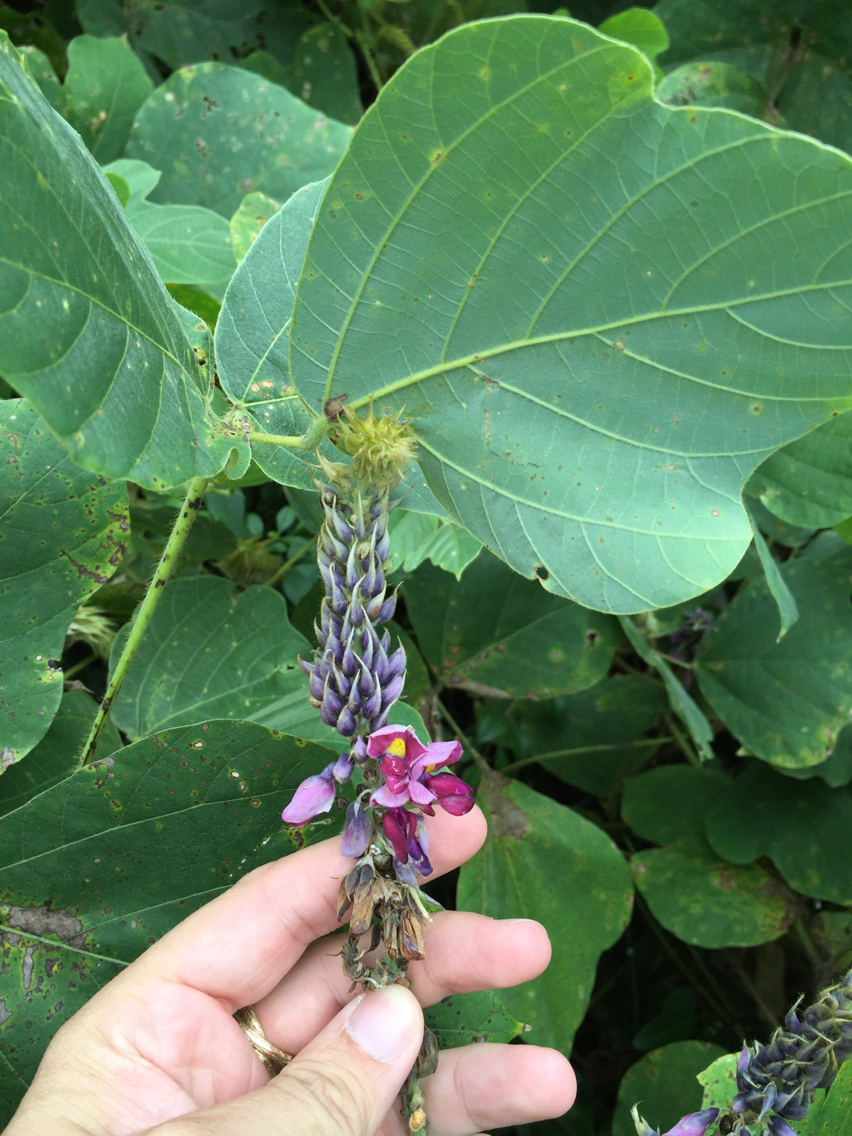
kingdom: Plantae
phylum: Tracheophyta
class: Magnoliopsida
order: Fabales
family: Fabaceae
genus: Pueraria
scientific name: Pueraria montana
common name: Kudzu
